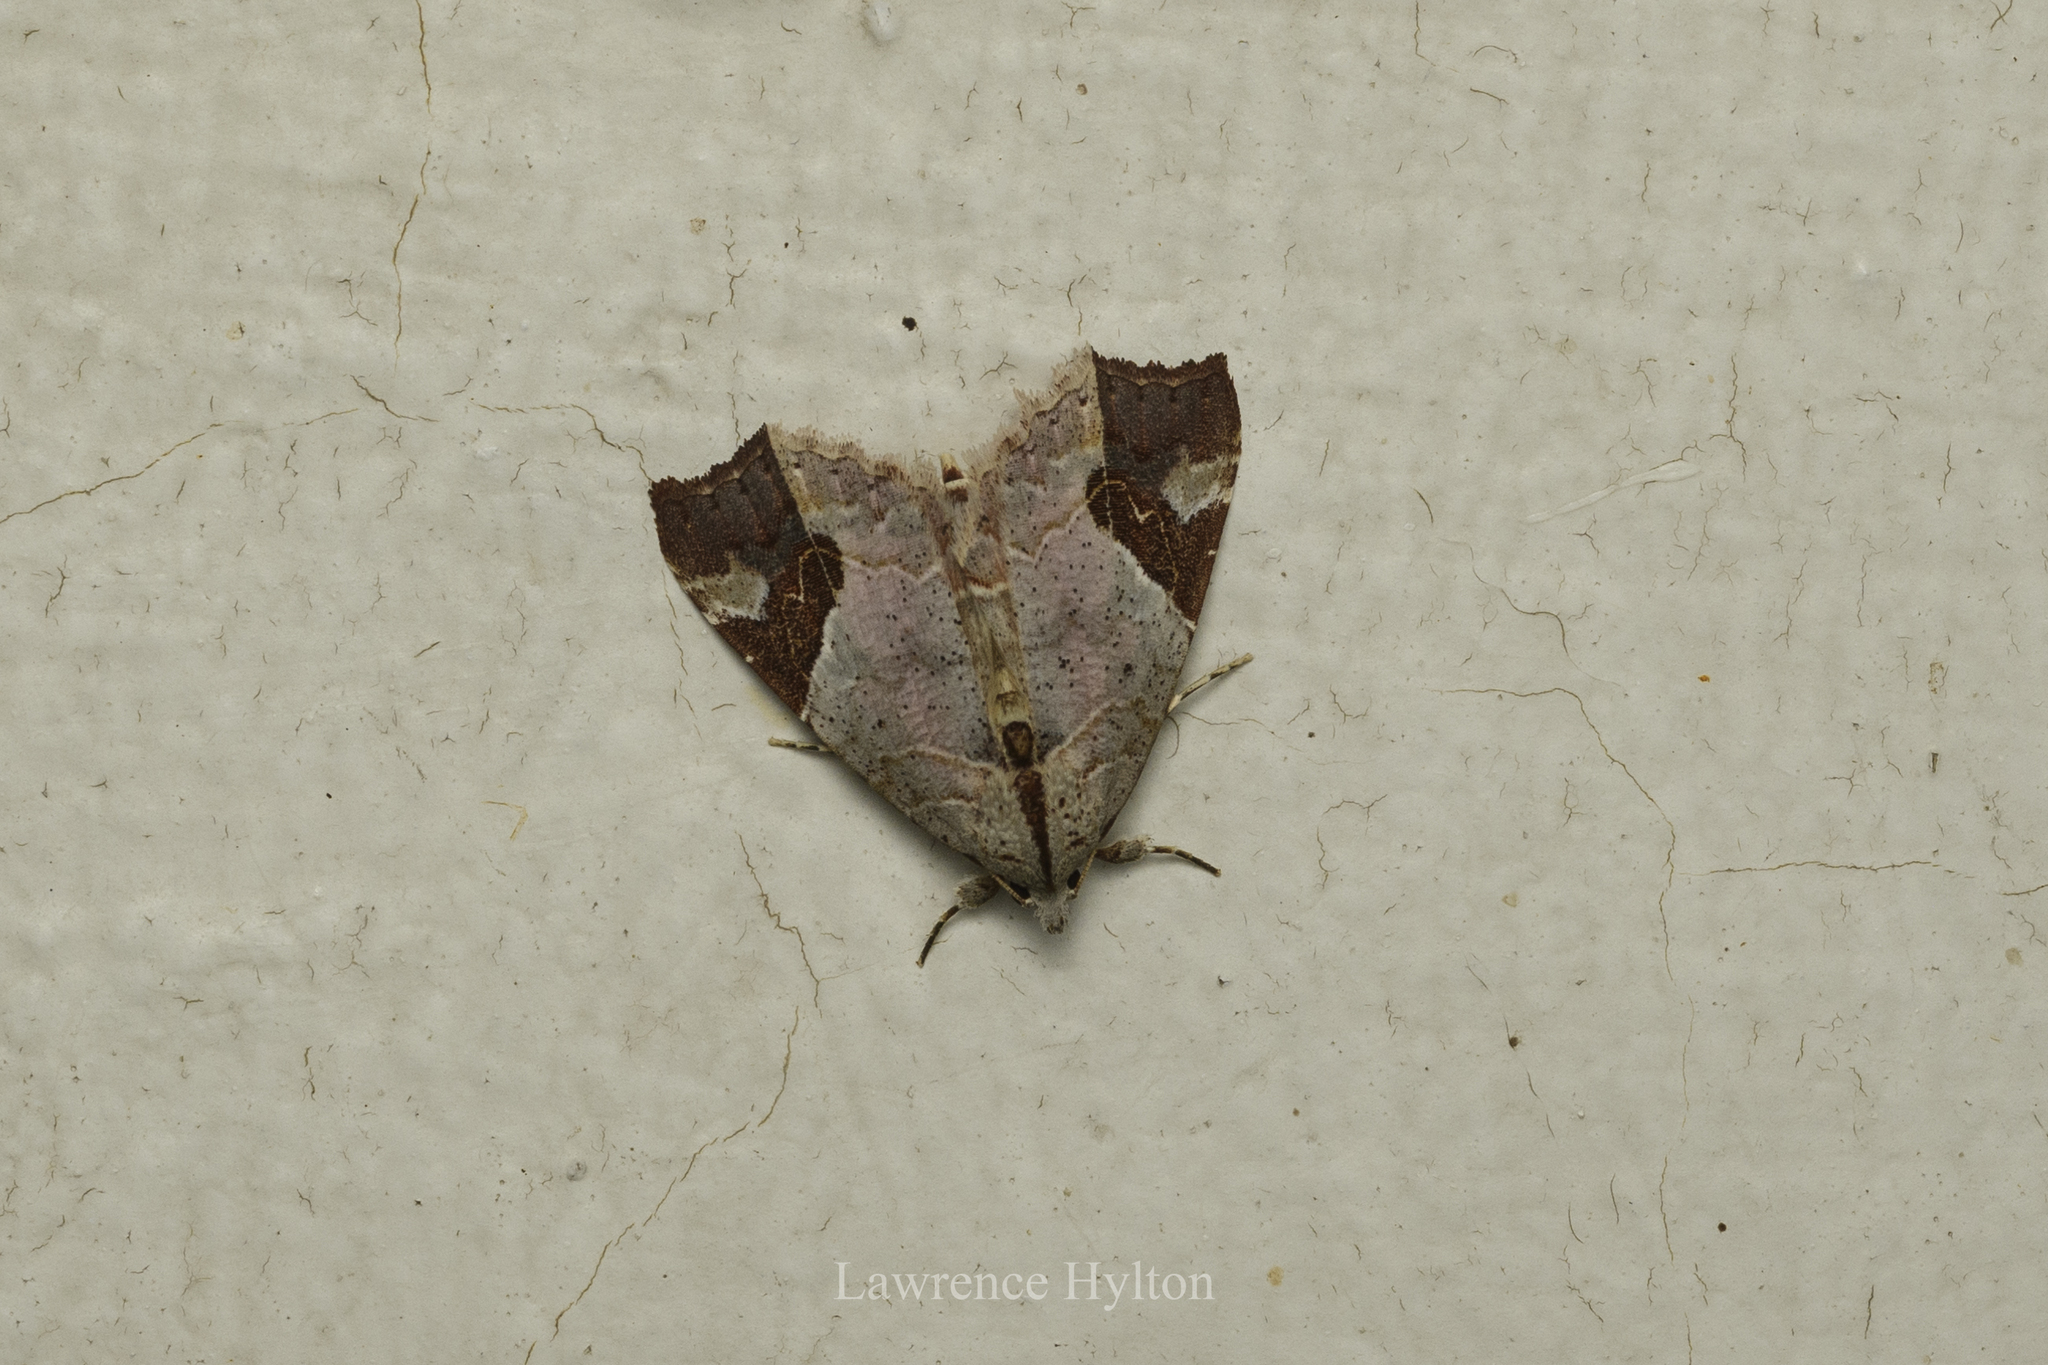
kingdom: Animalia
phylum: Arthropoda
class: Insecta
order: Lepidoptera
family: Erebidae
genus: Tamba
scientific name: Tamba cautiperas
